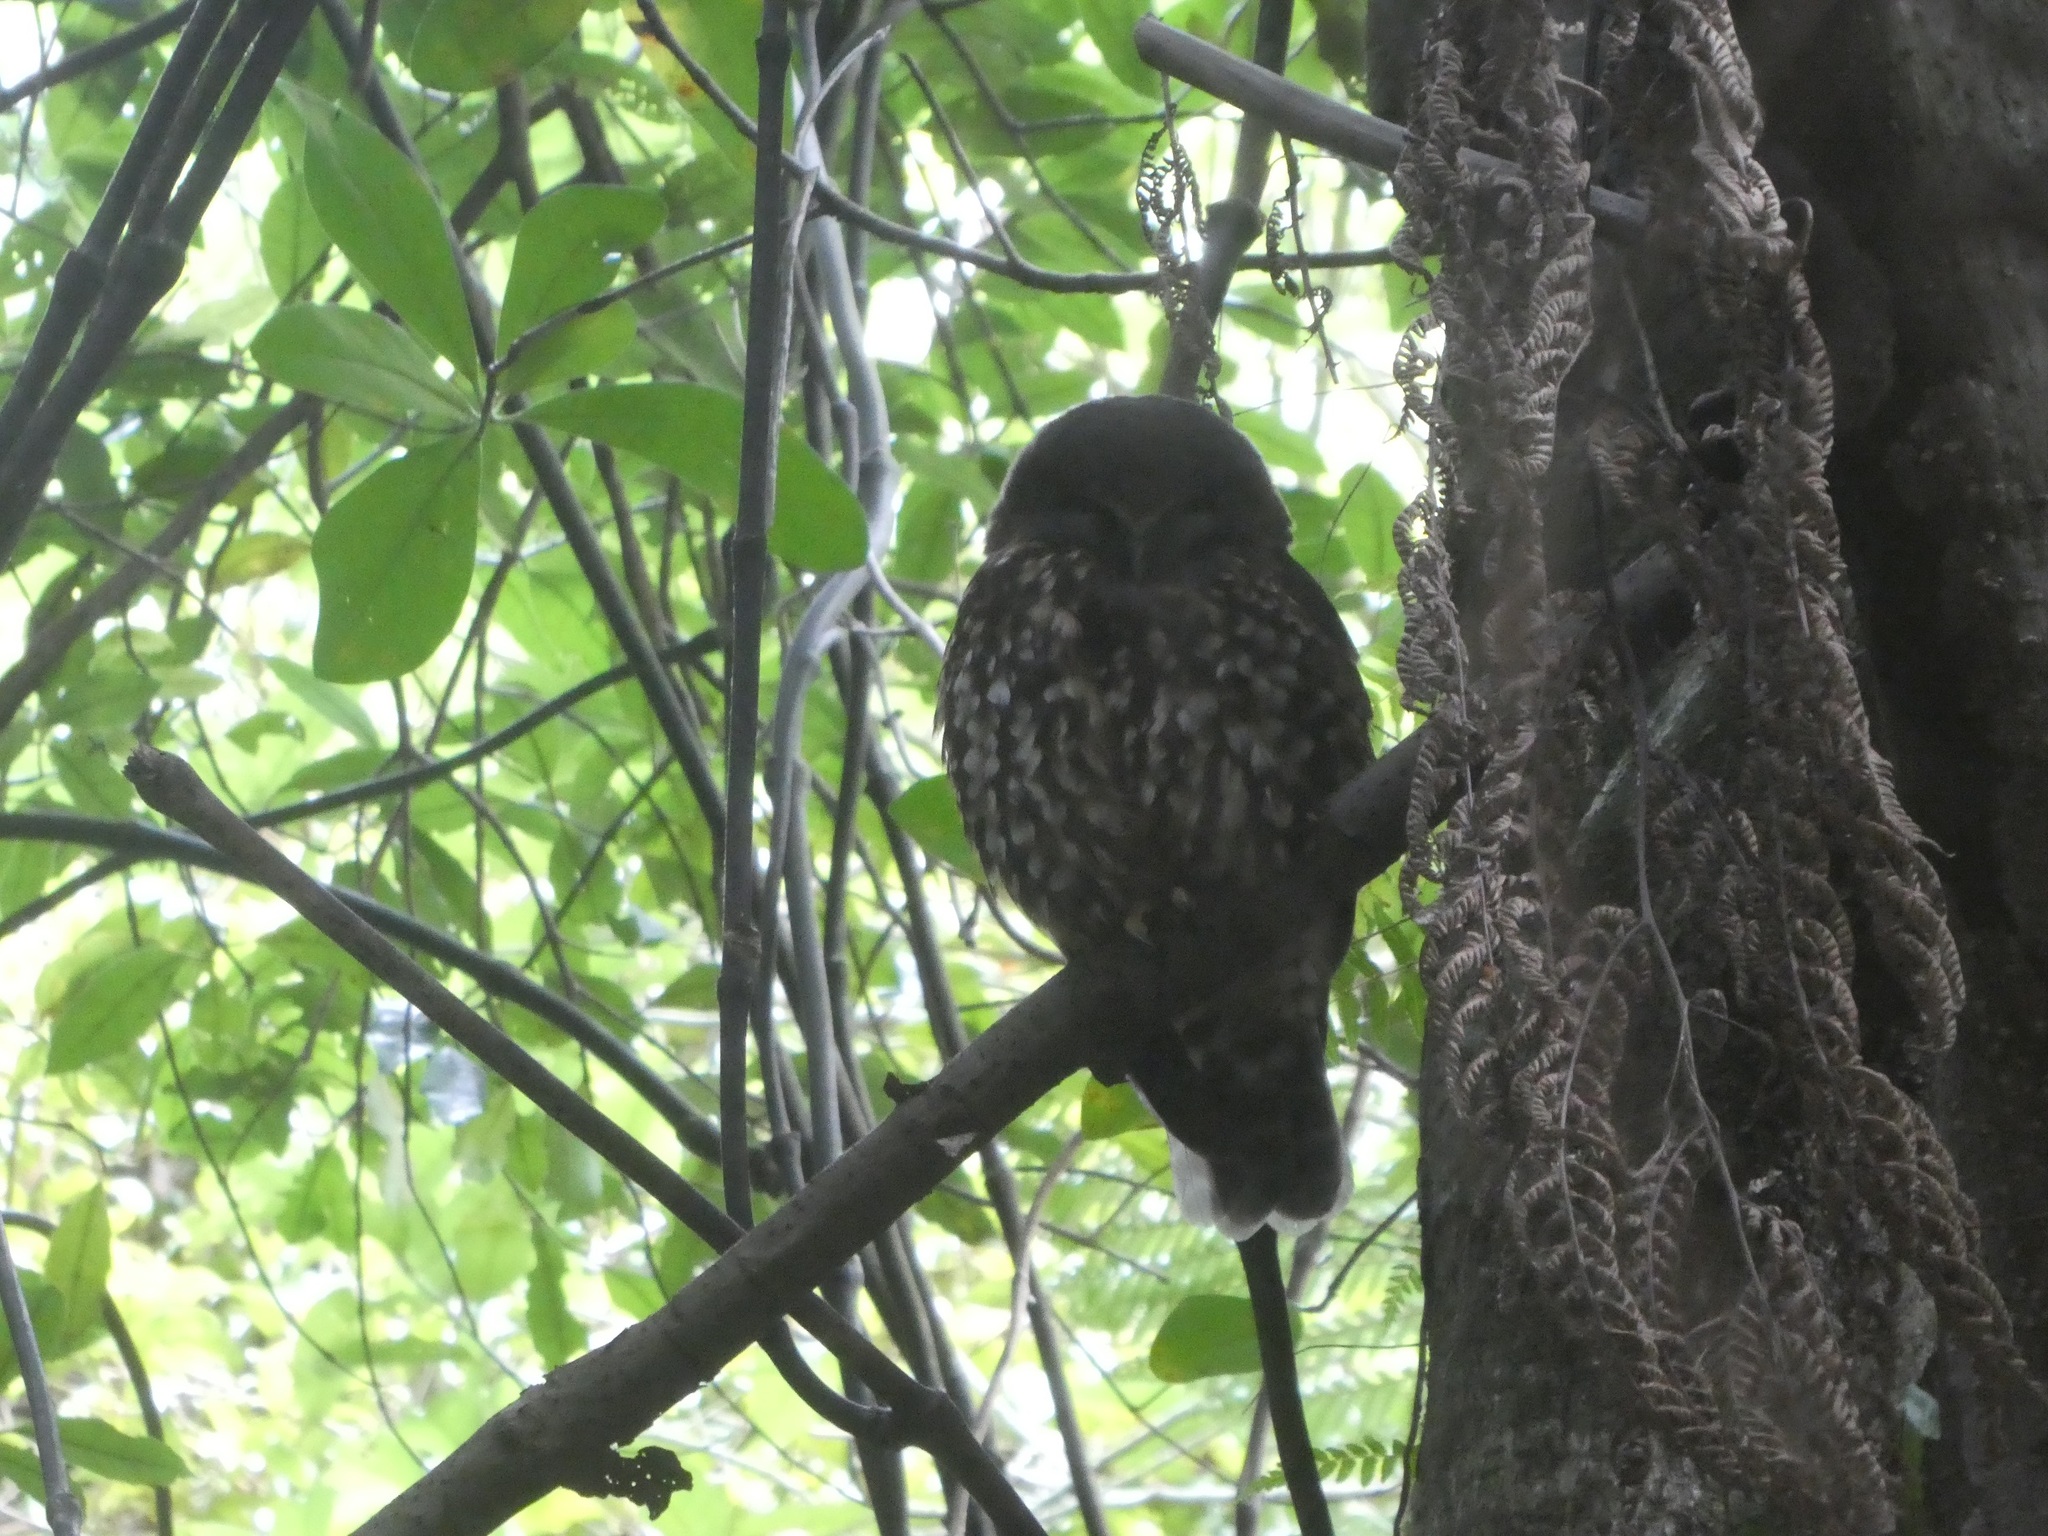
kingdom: Animalia
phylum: Chordata
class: Aves
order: Strigiformes
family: Strigidae
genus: Ninox
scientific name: Ninox novaeseelandiae
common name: Morepork
